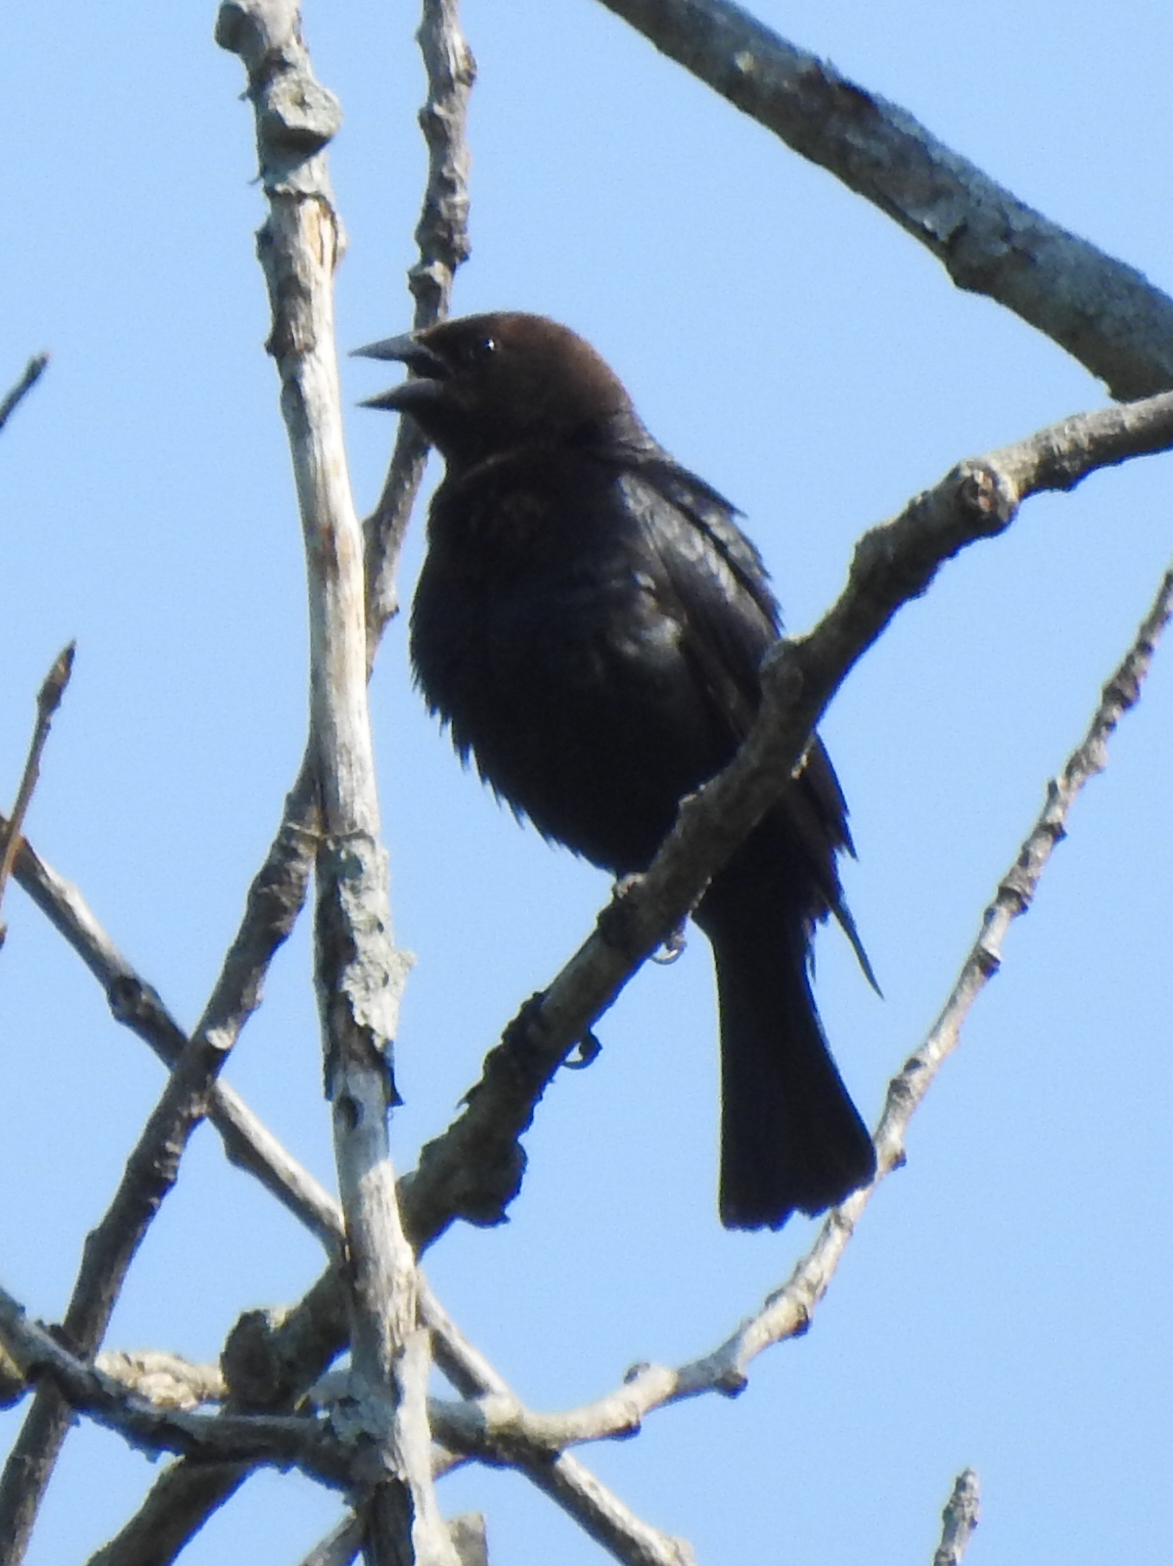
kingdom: Animalia
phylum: Chordata
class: Aves
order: Passeriformes
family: Icteridae
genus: Molothrus
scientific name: Molothrus ater
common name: Brown-headed cowbird
